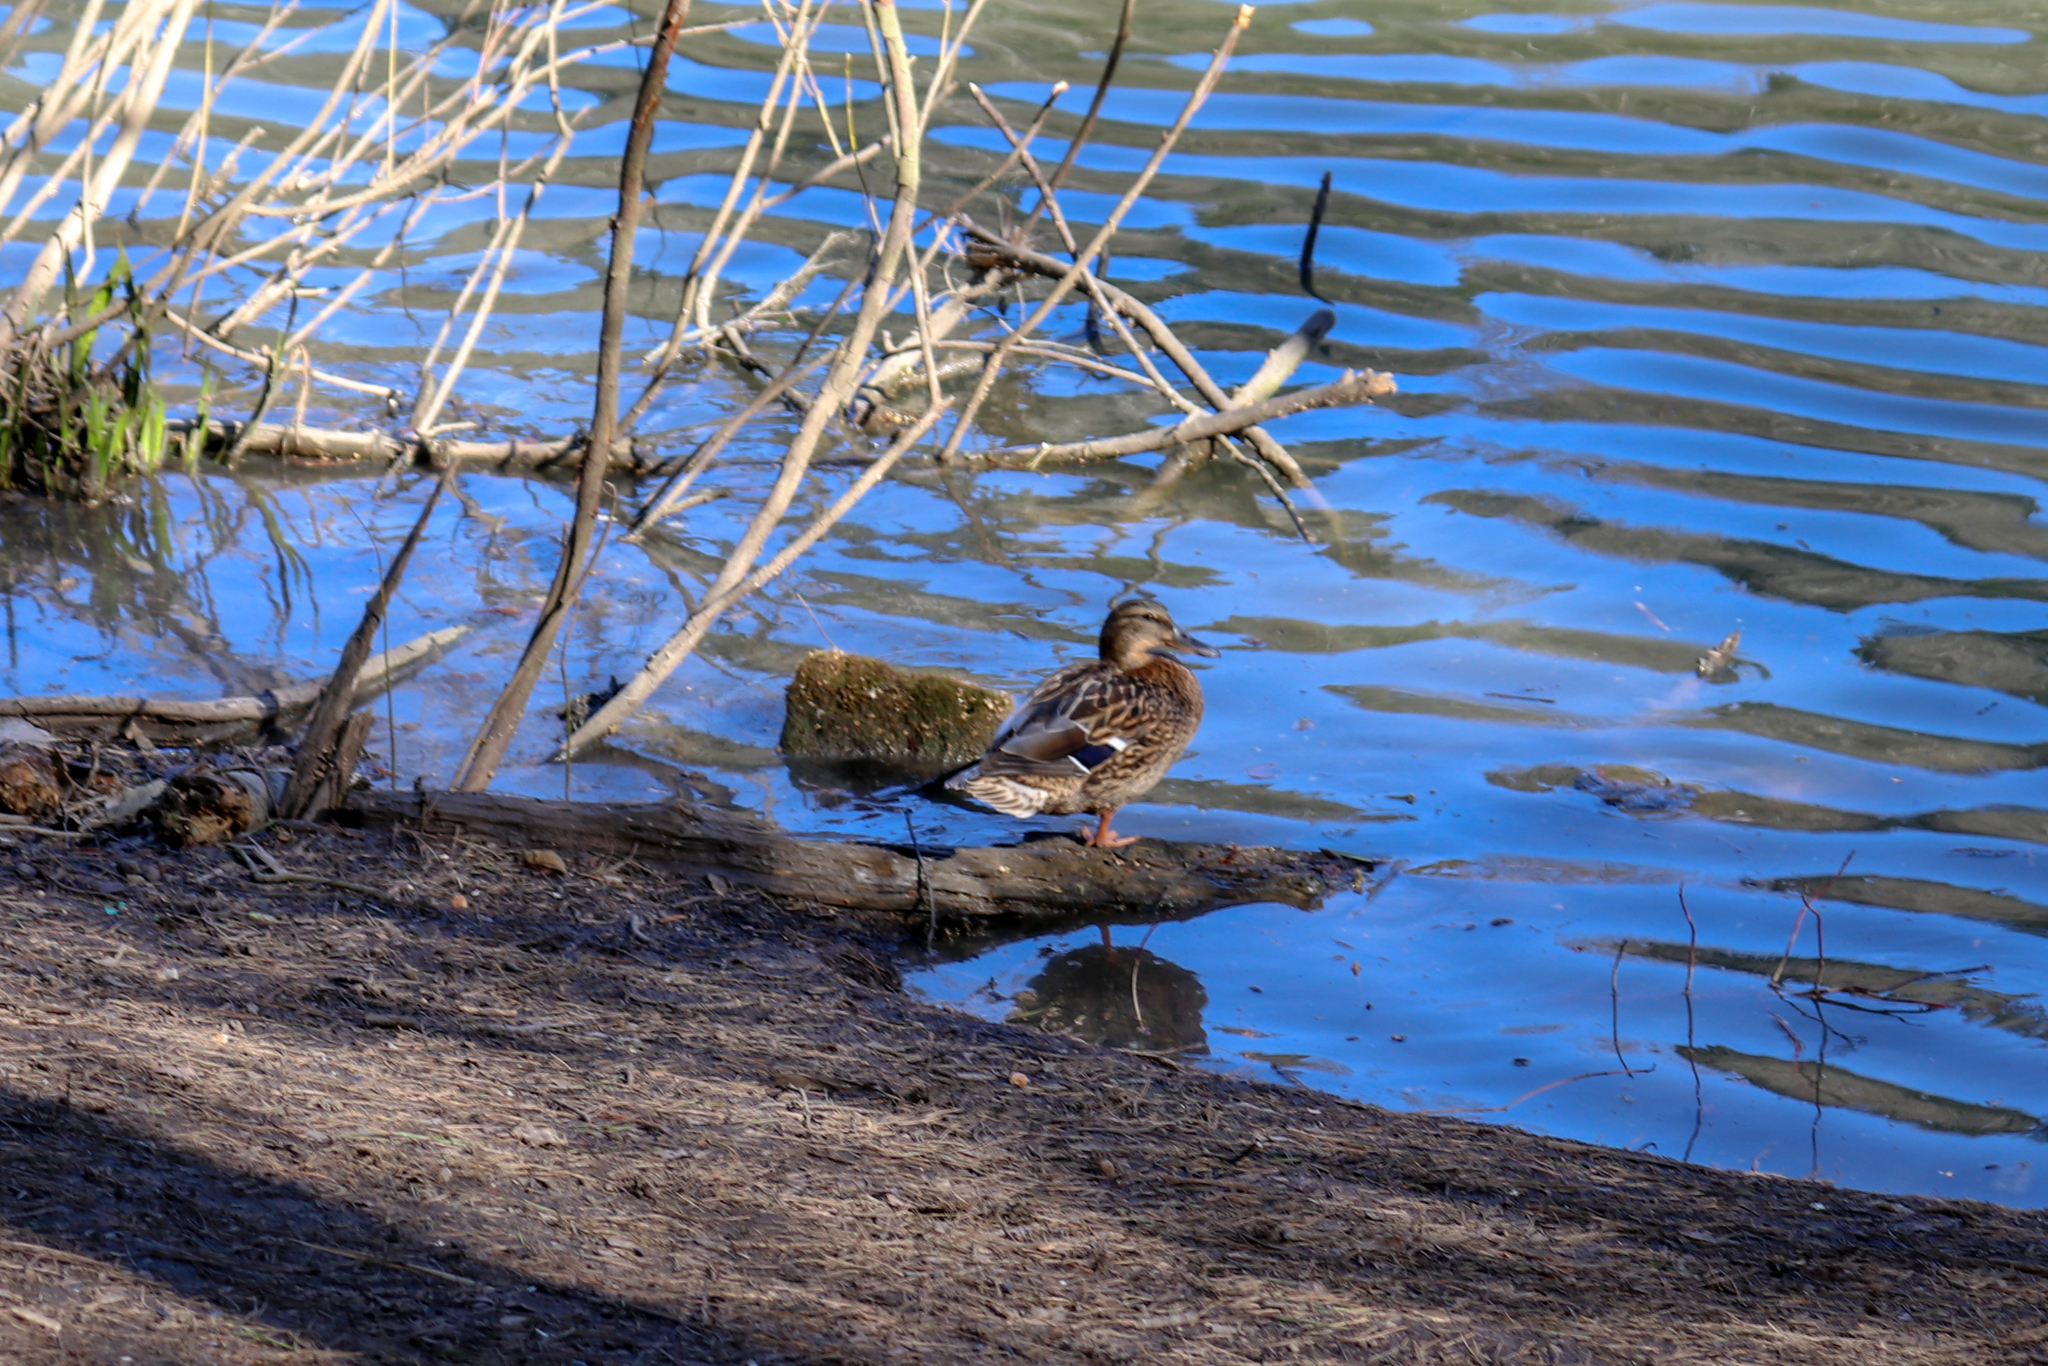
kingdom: Animalia
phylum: Chordata
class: Aves
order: Anseriformes
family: Anatidae
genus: Anas
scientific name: Anas platyrhynchos
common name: Mallard
